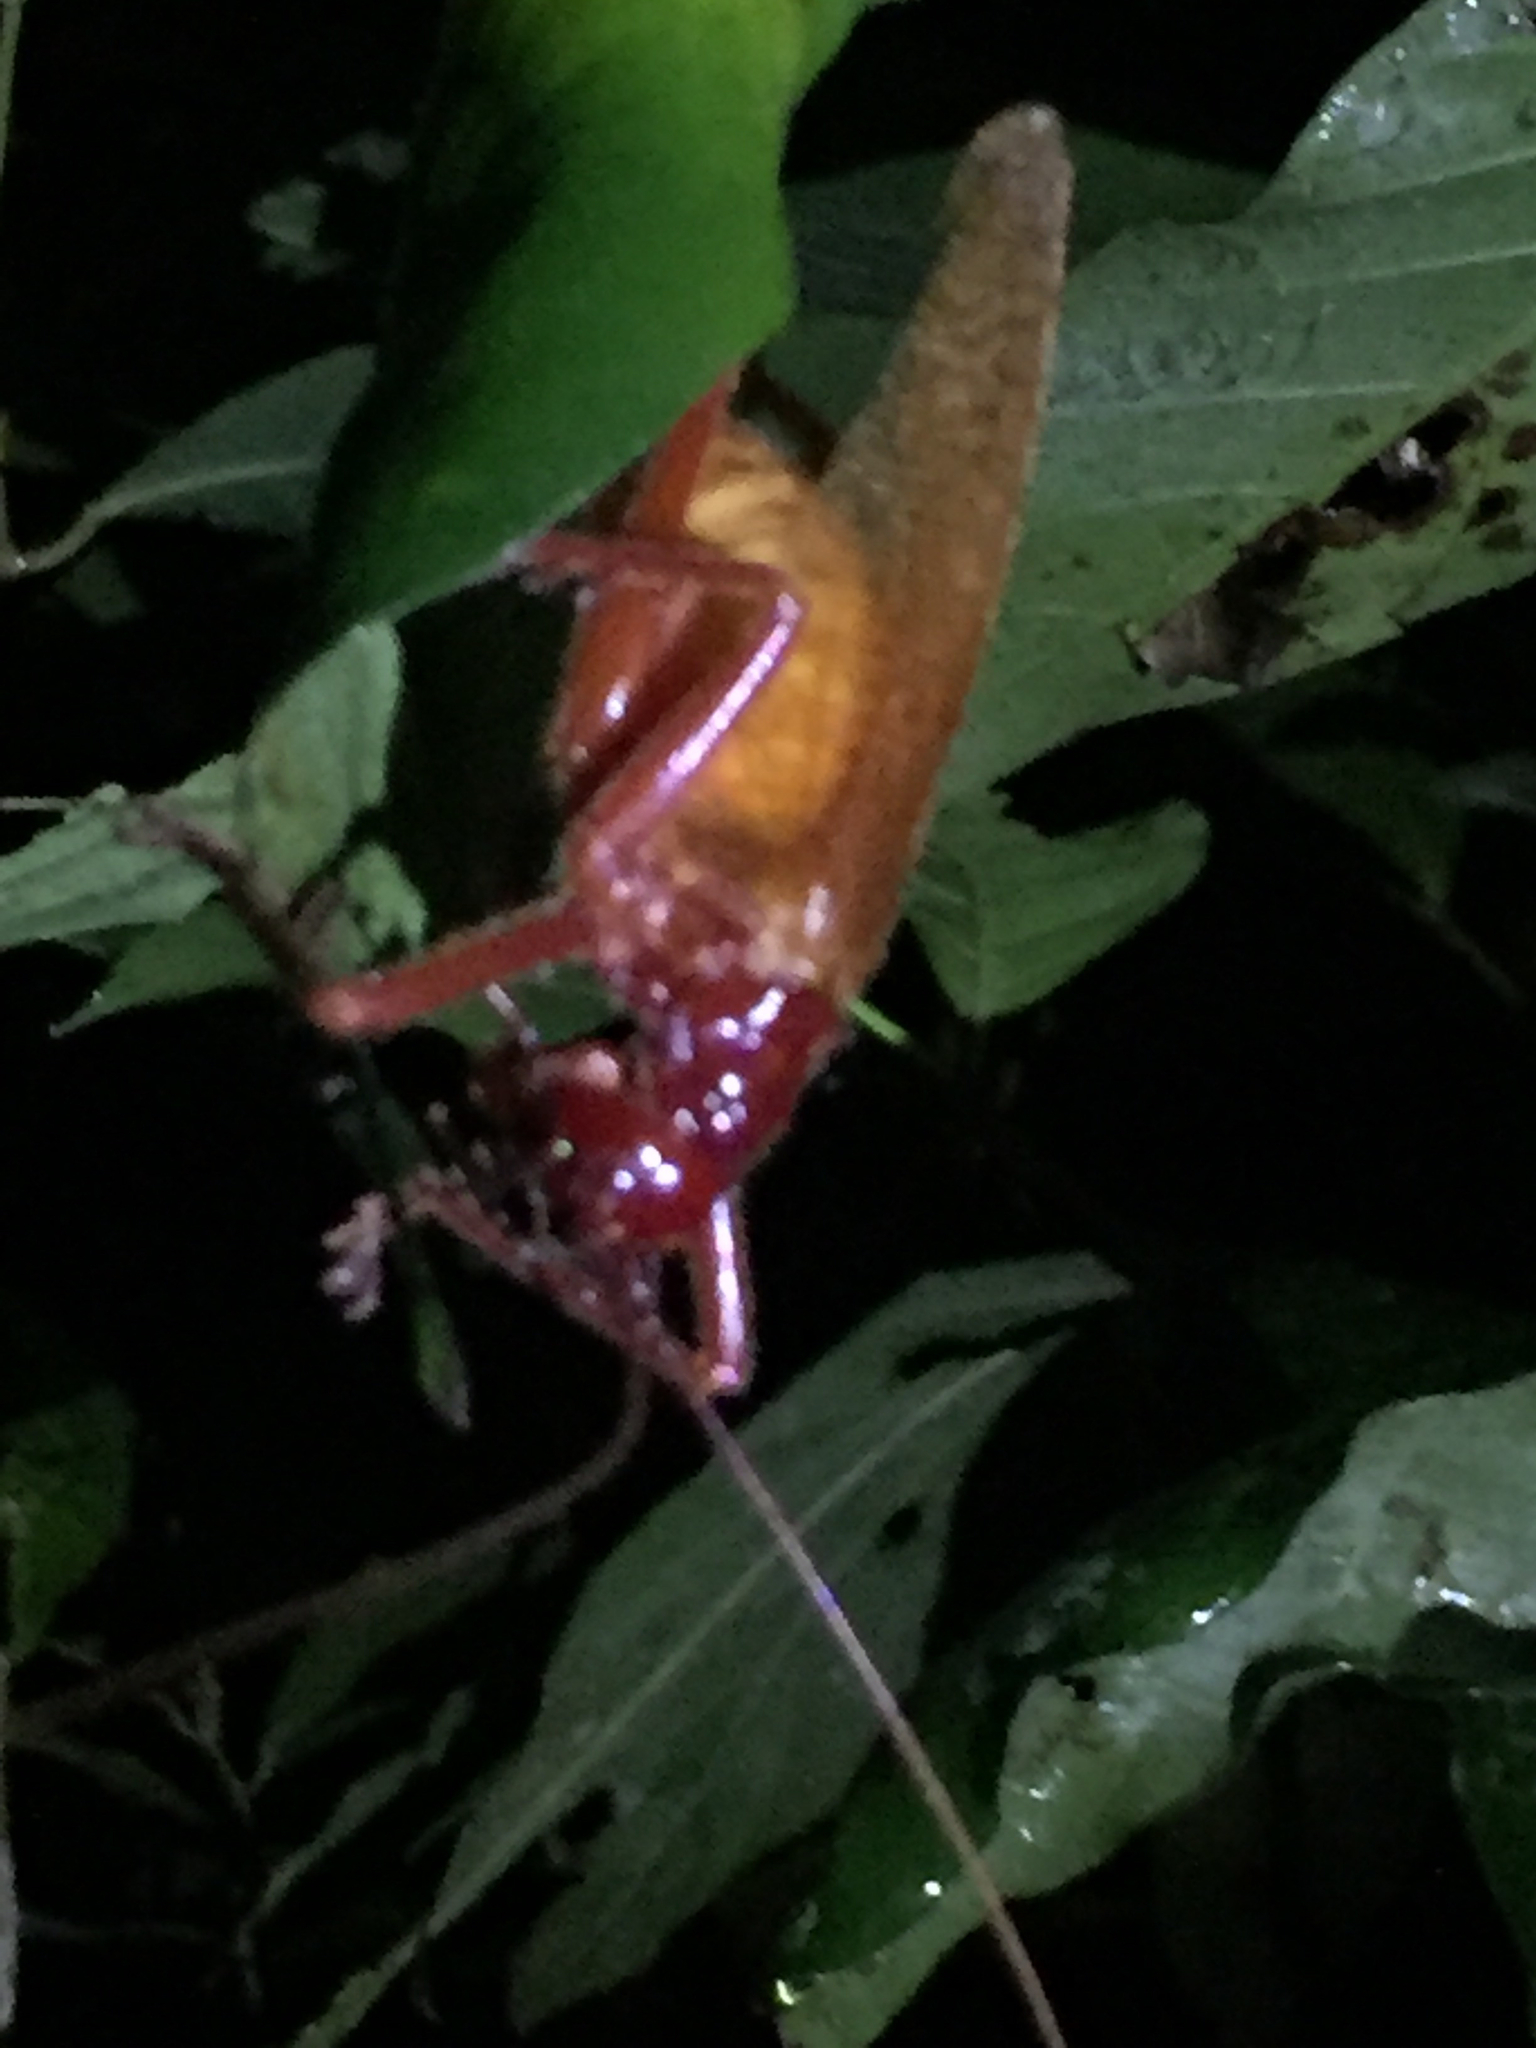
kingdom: Animalia
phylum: Arthropoda
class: Insecta
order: Orthoptera
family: Gryllacrididae
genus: Capnogryllacris
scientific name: Capnogryllacris rufonotata
